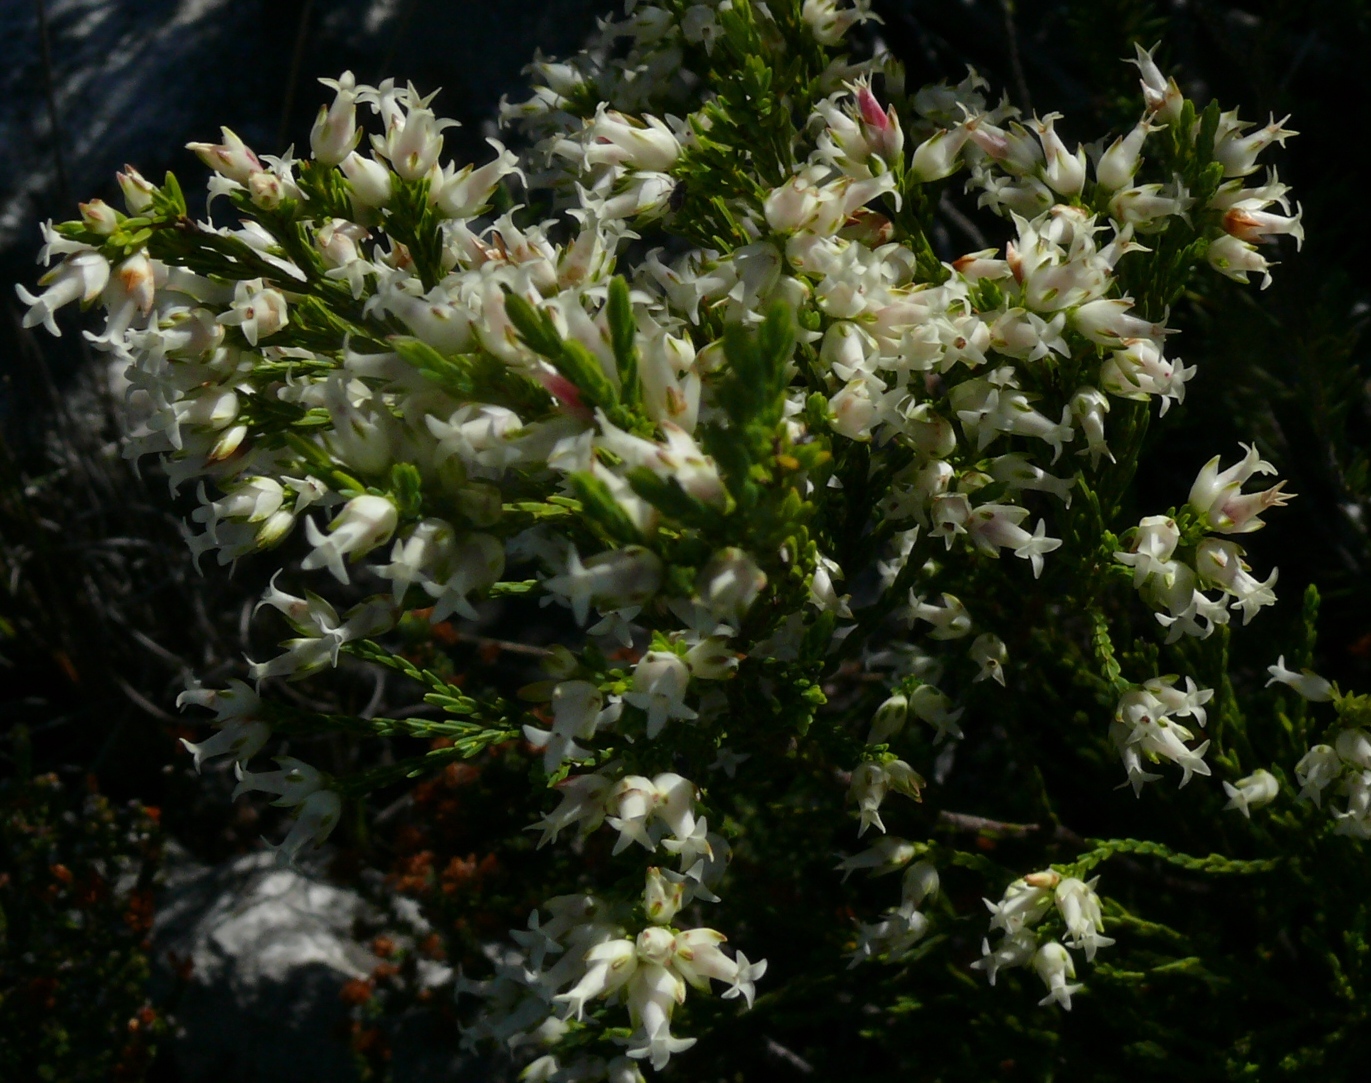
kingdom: Plantae
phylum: Tracheophyta
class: Magnoliopsida
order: Ericales
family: Ericaceae
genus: Erica
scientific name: Erica lutea
